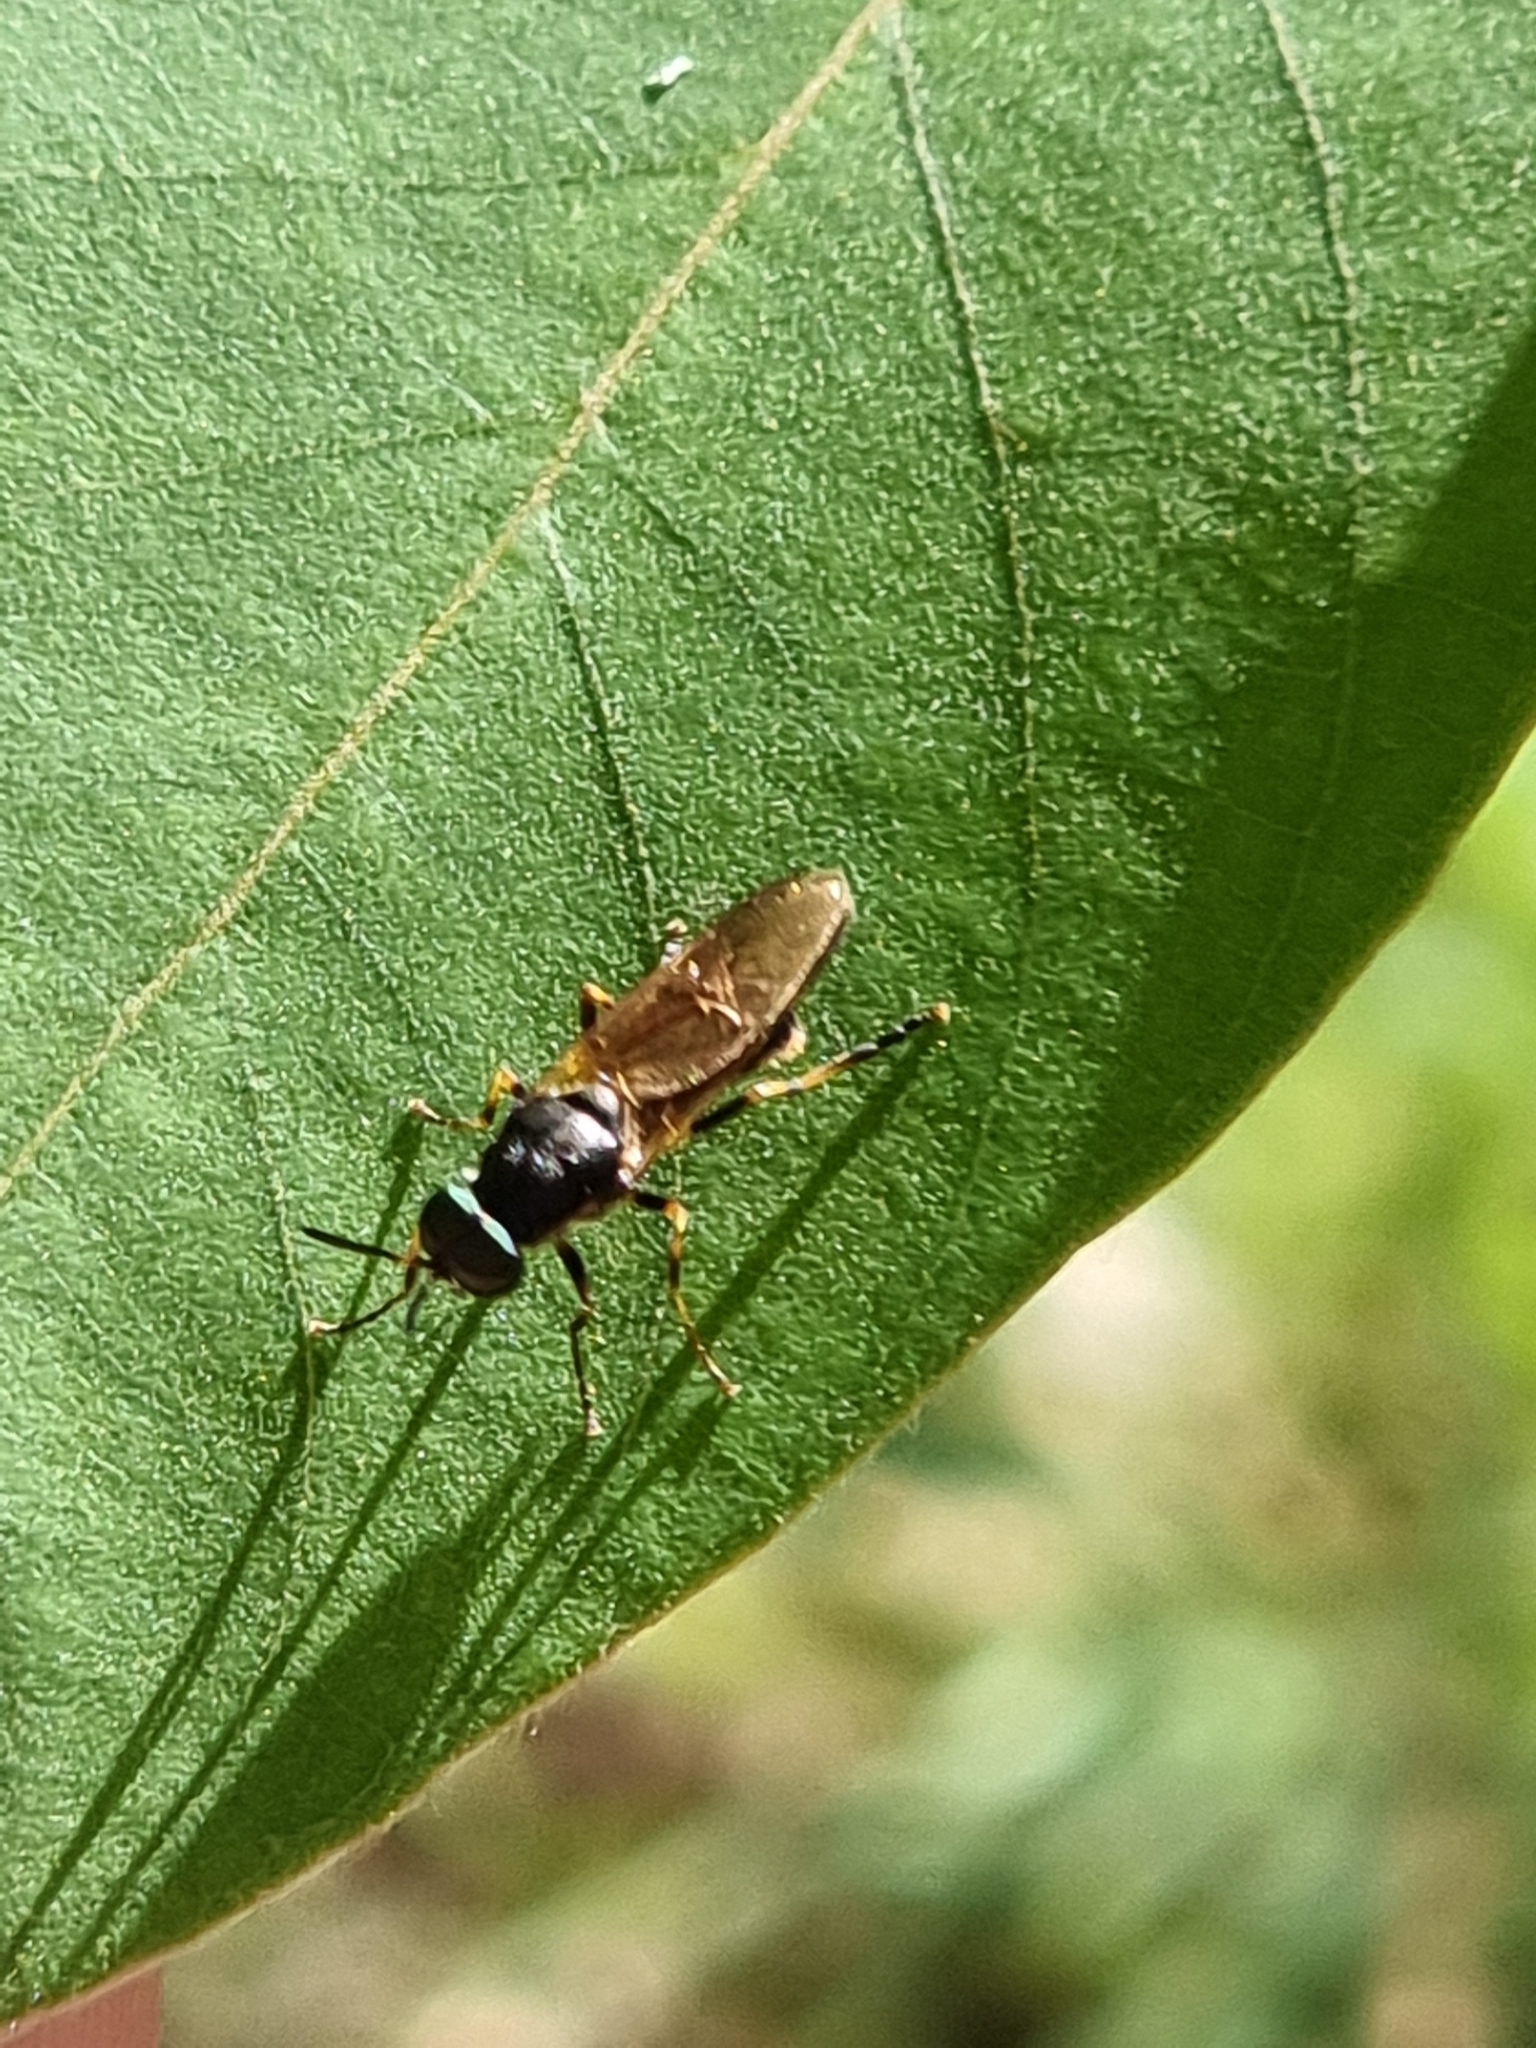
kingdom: Animalia
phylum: Arthropoda
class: Insecta
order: Diptera
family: Stratiomyidae
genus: Lagenosoma
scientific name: Lagenosoma dispar
